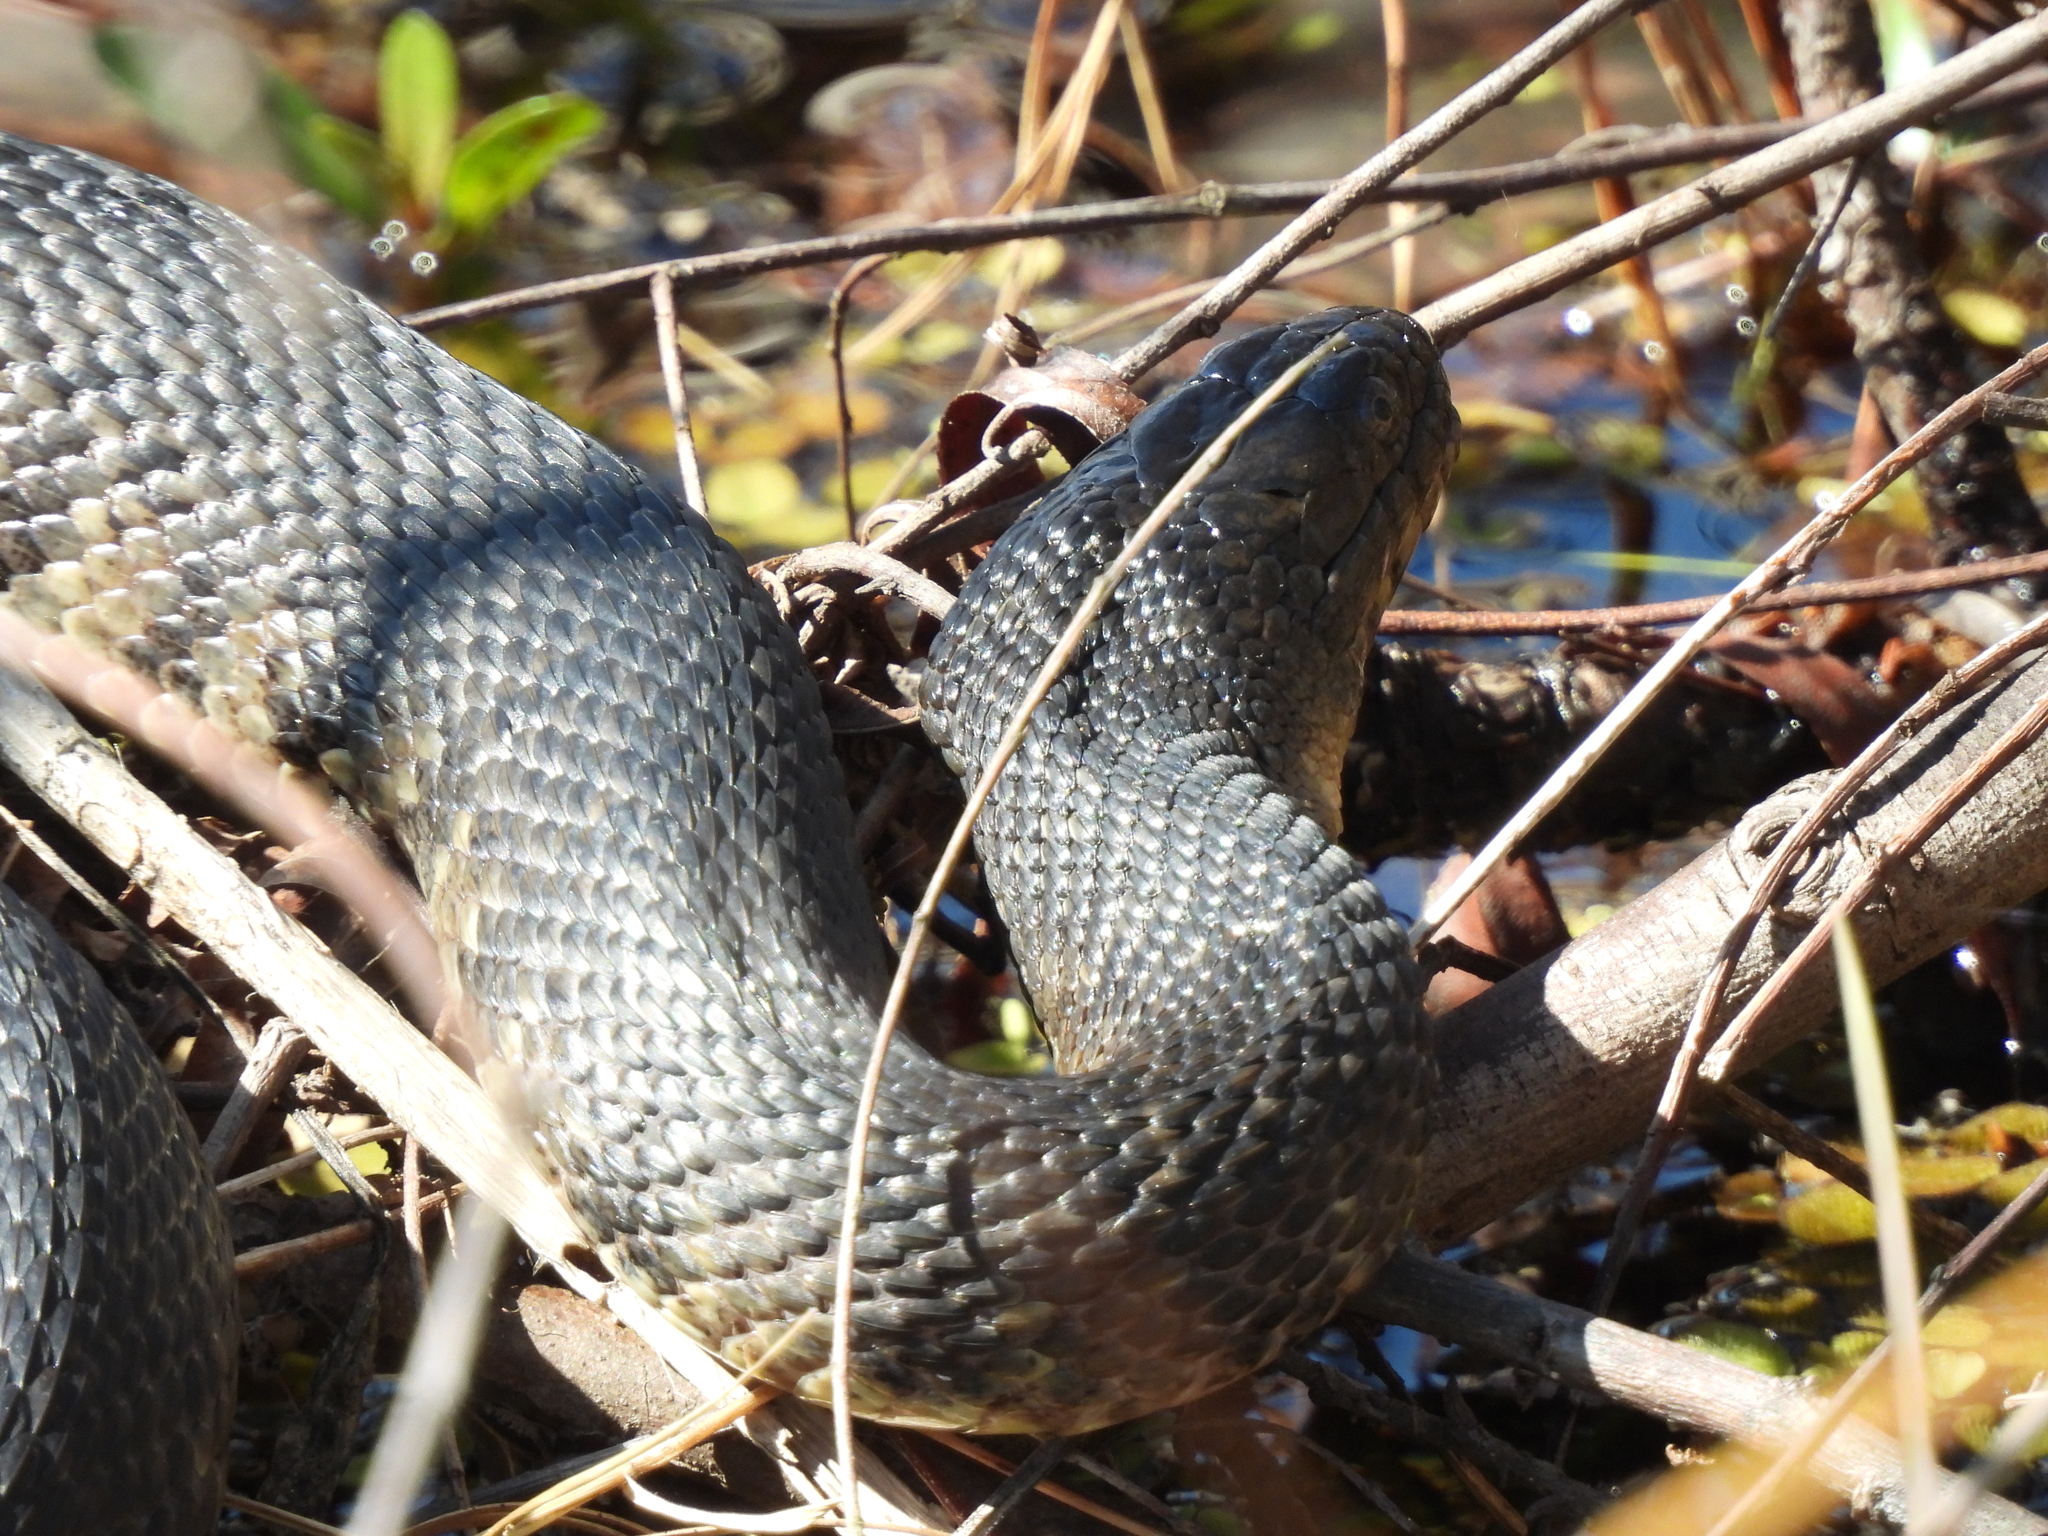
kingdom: Animalia
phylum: Chordata
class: Squamata
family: Colubridae
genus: Nerodia
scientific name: Nerodia cyclopion
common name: Mississippi green water snake
